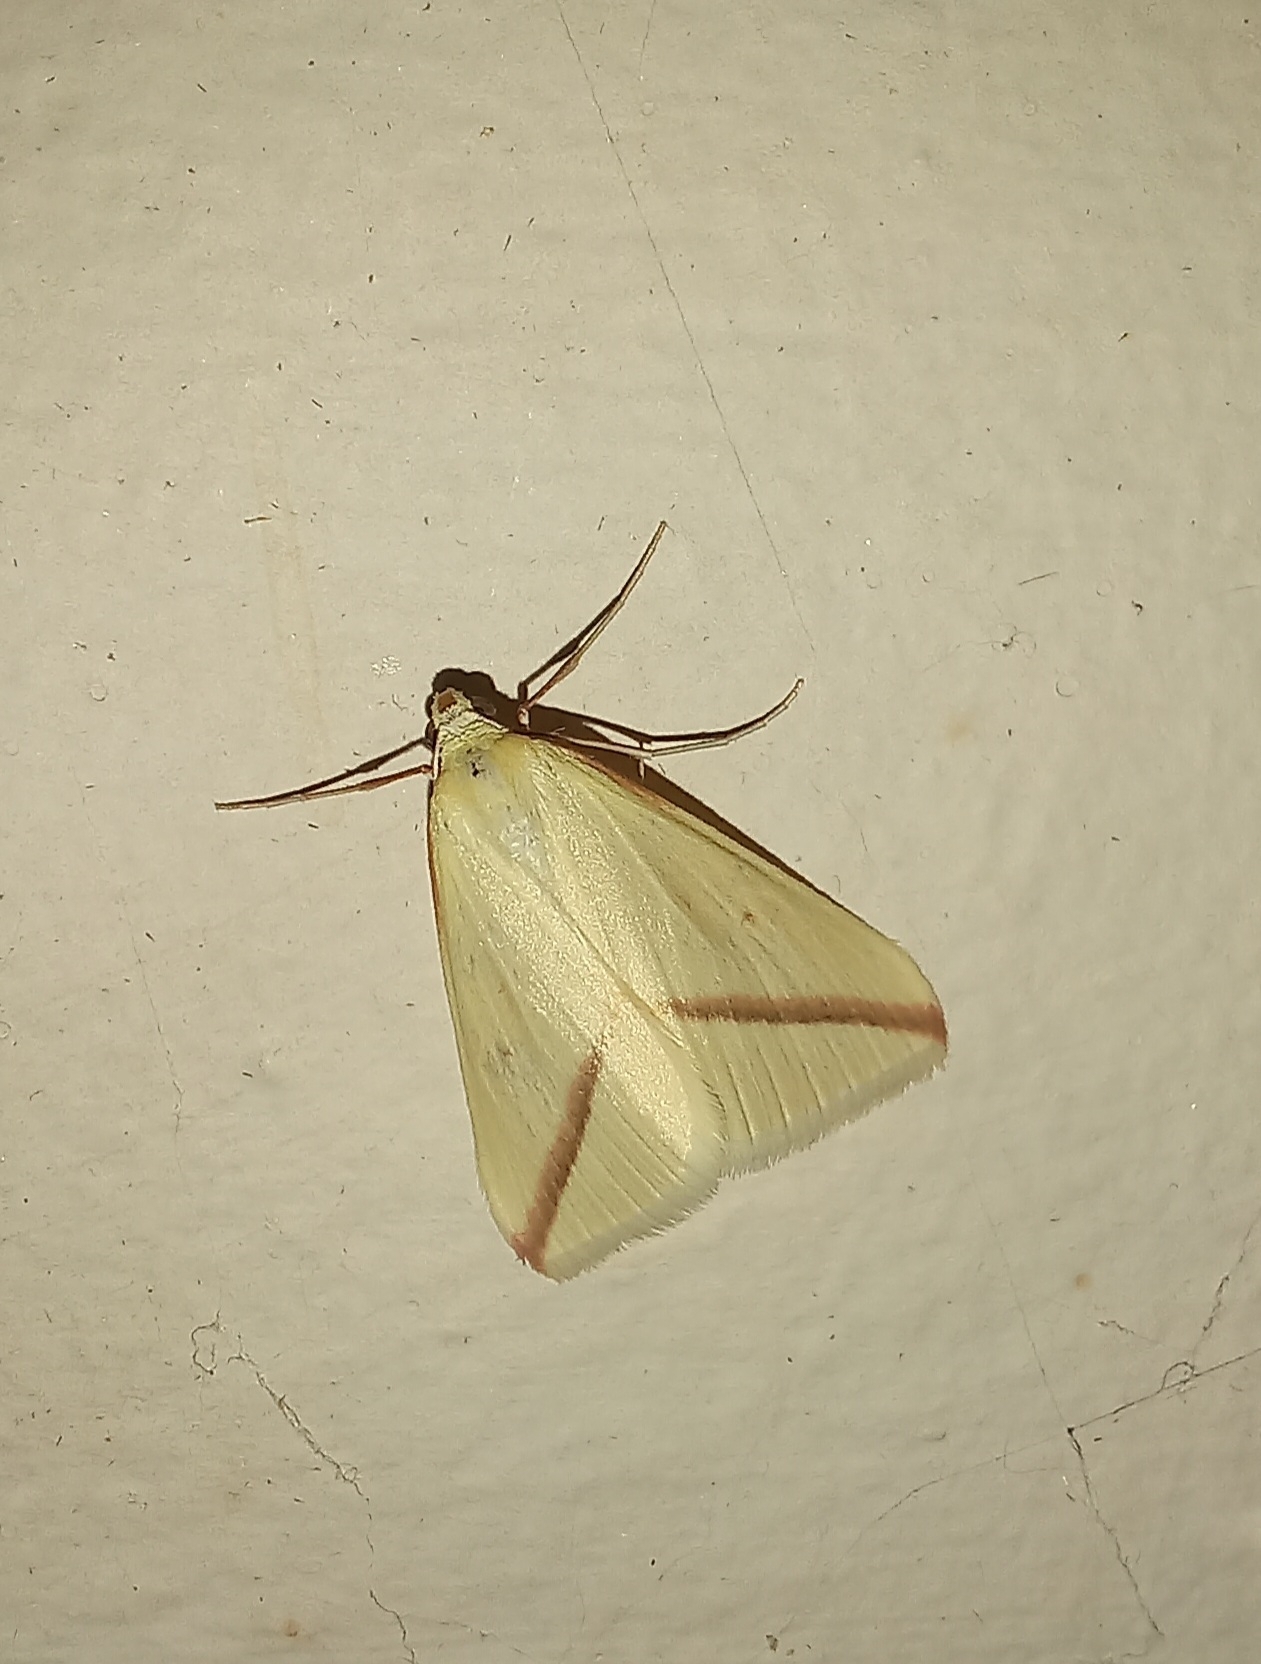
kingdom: Animalia
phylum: Arthropoda
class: Insecta
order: Lepidoptera
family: Geometridae
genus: Rhodometra
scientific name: Rhodometra sacraria
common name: Vestal
